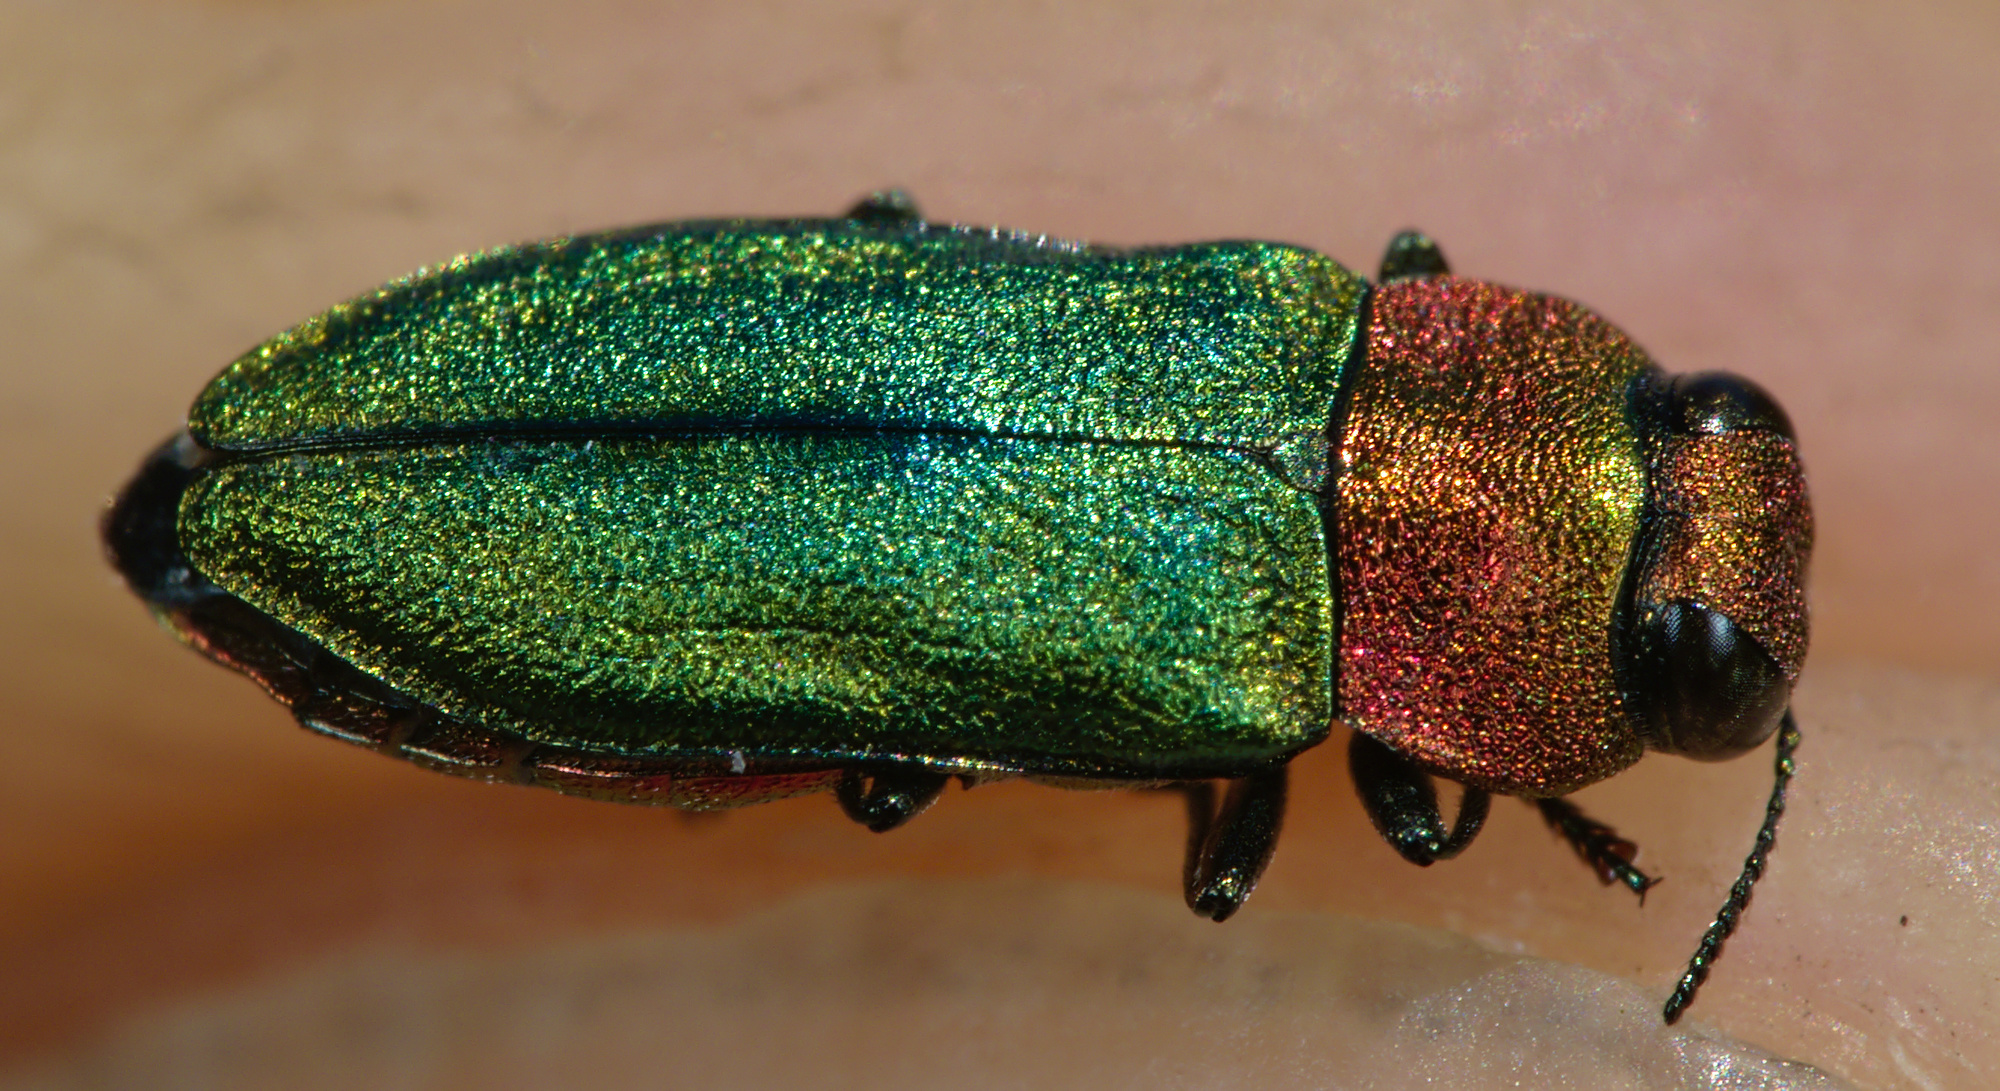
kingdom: Animalia
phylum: Arthropoda
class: Insecta
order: Coleoptera
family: Buprestidae
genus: Anthaxia
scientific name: Anthaxia nitidula
